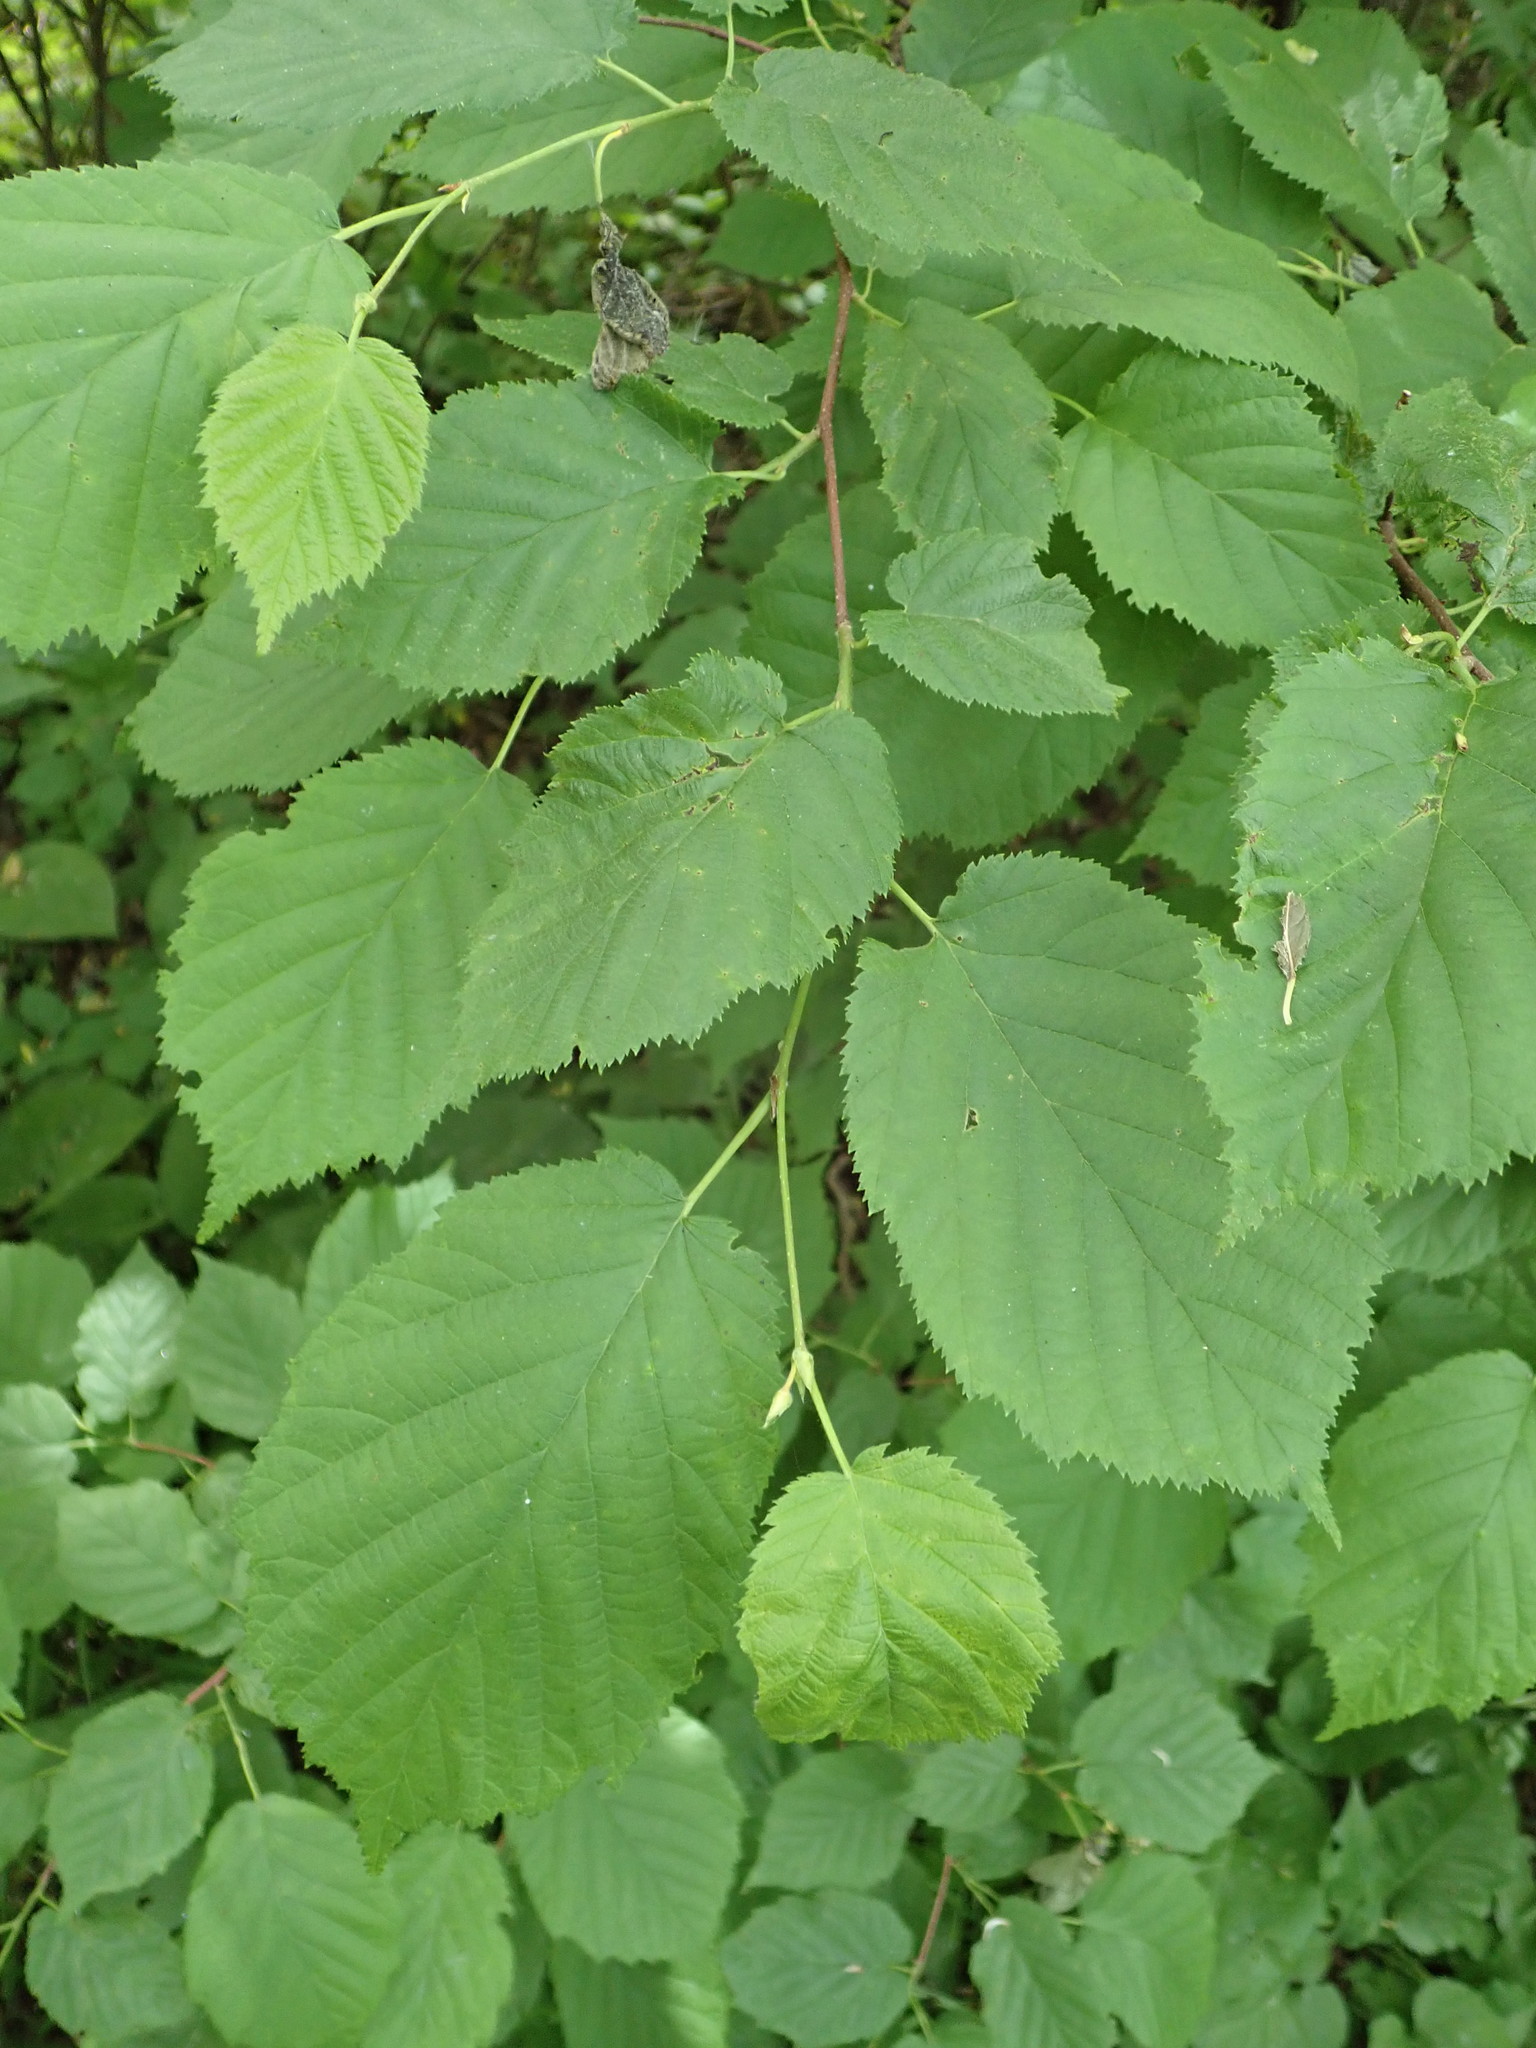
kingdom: Plantae
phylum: Tracheophyta
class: Magnoliopsida
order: Fagales
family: Betulaceae
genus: Corylus
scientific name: Corylus cornuta
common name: Beaked hazel
